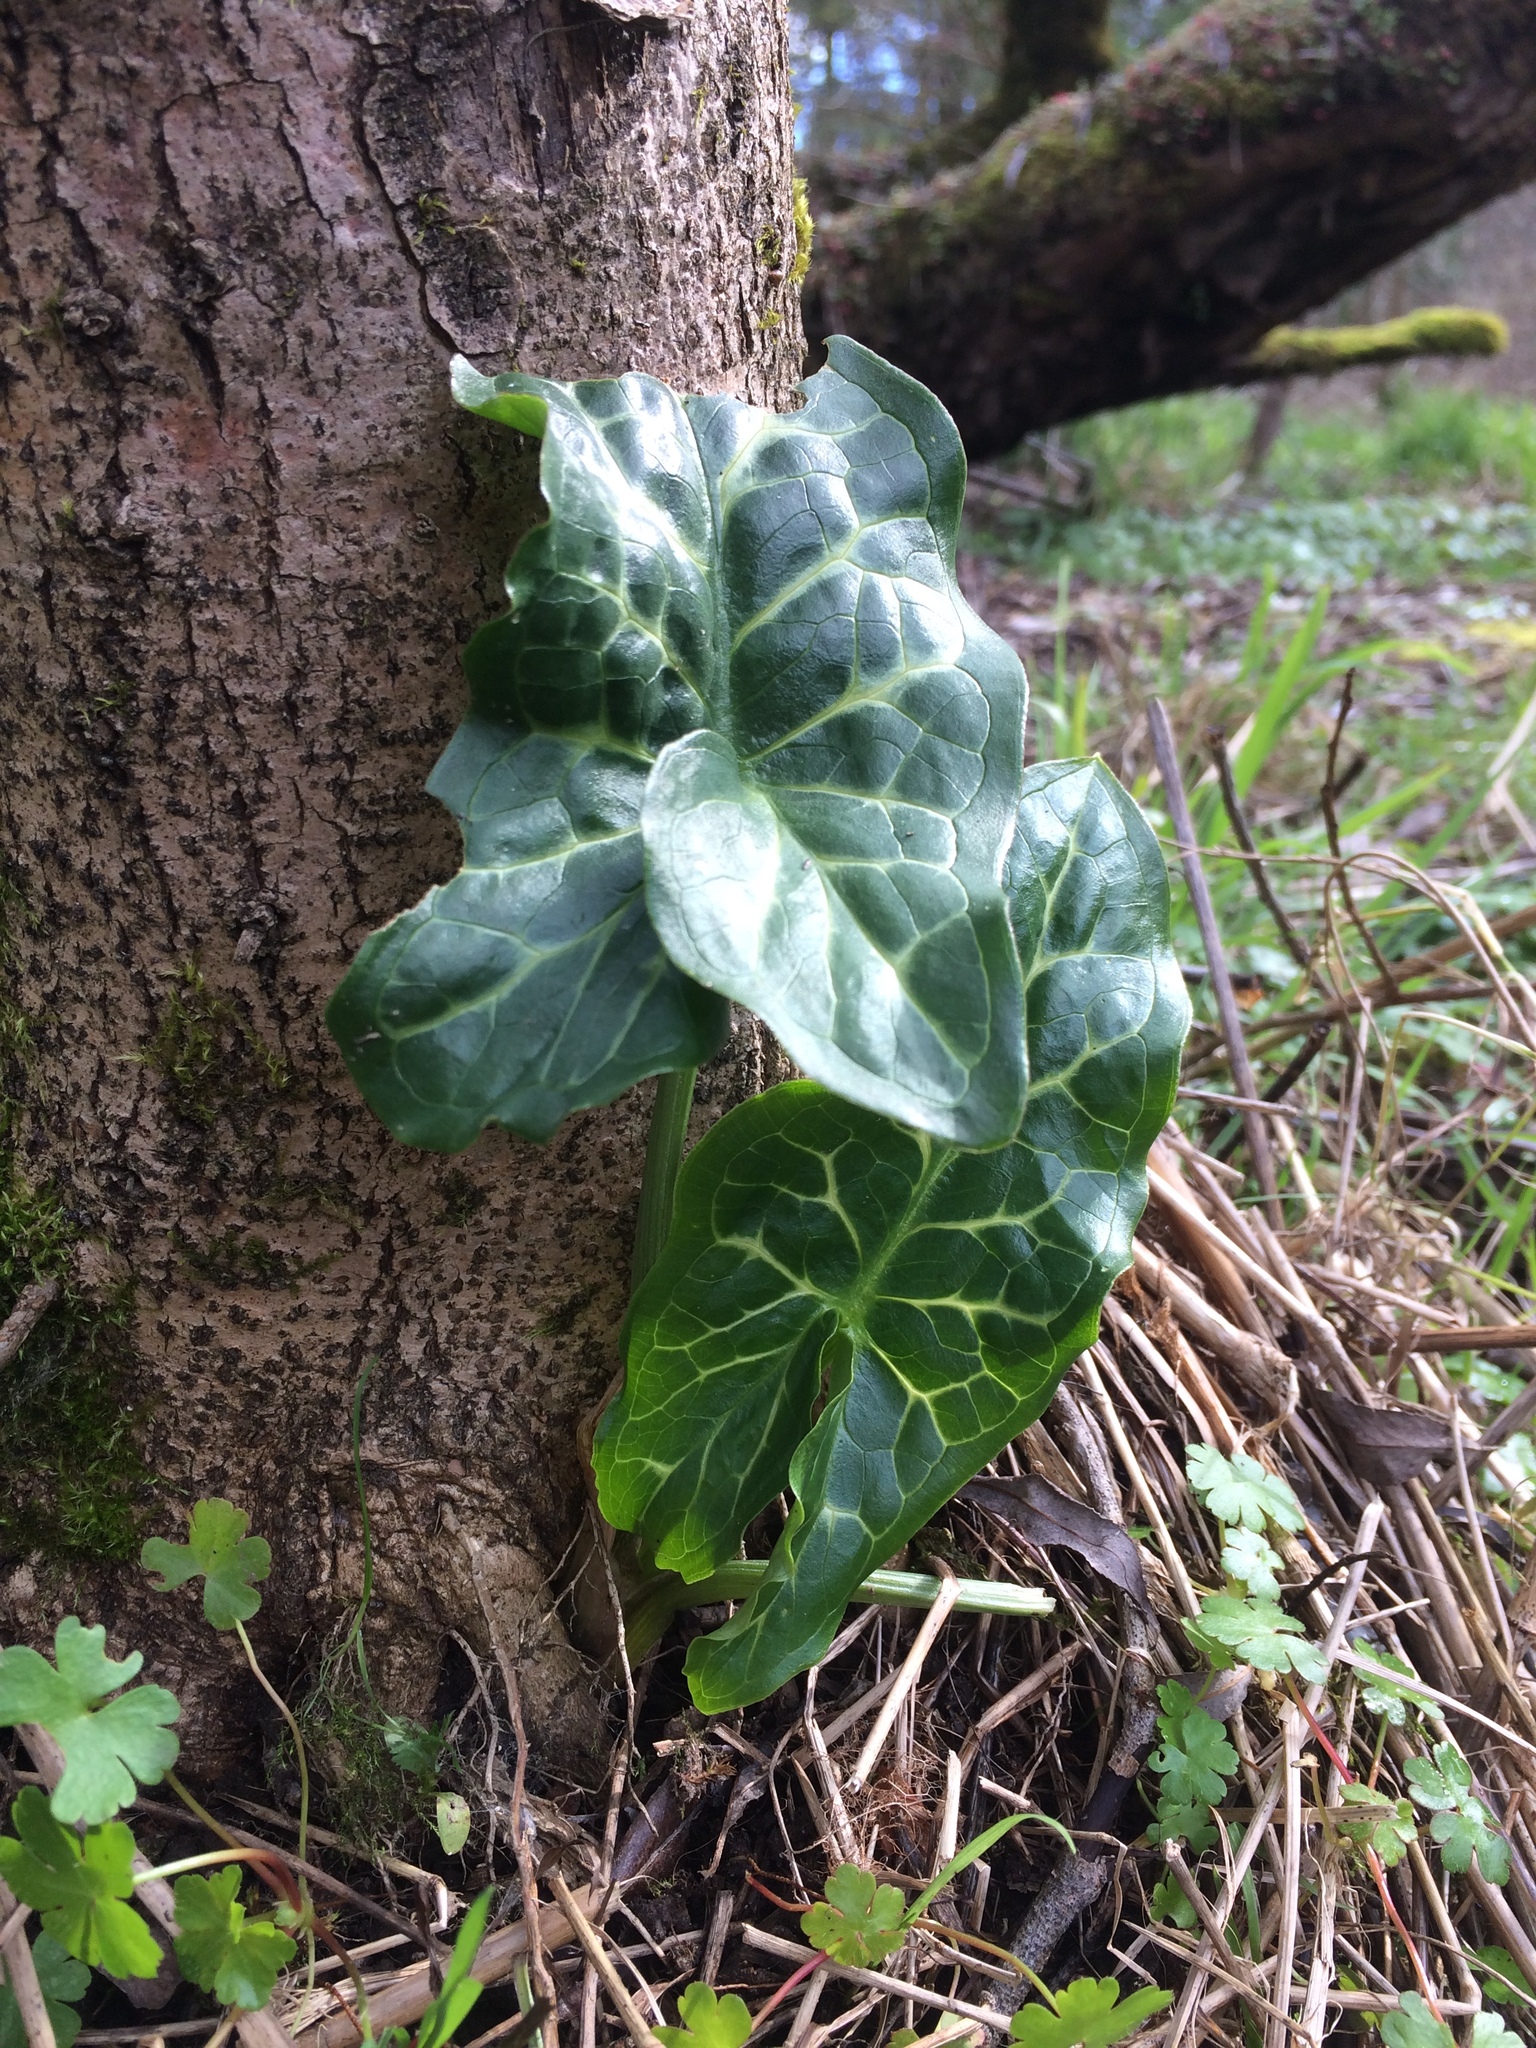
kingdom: Plantae
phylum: Tracheophyta
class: Liliopsida
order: Alismatales
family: Araceae
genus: Arum
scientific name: Arum italicum
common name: Italian lords-and-ladies
